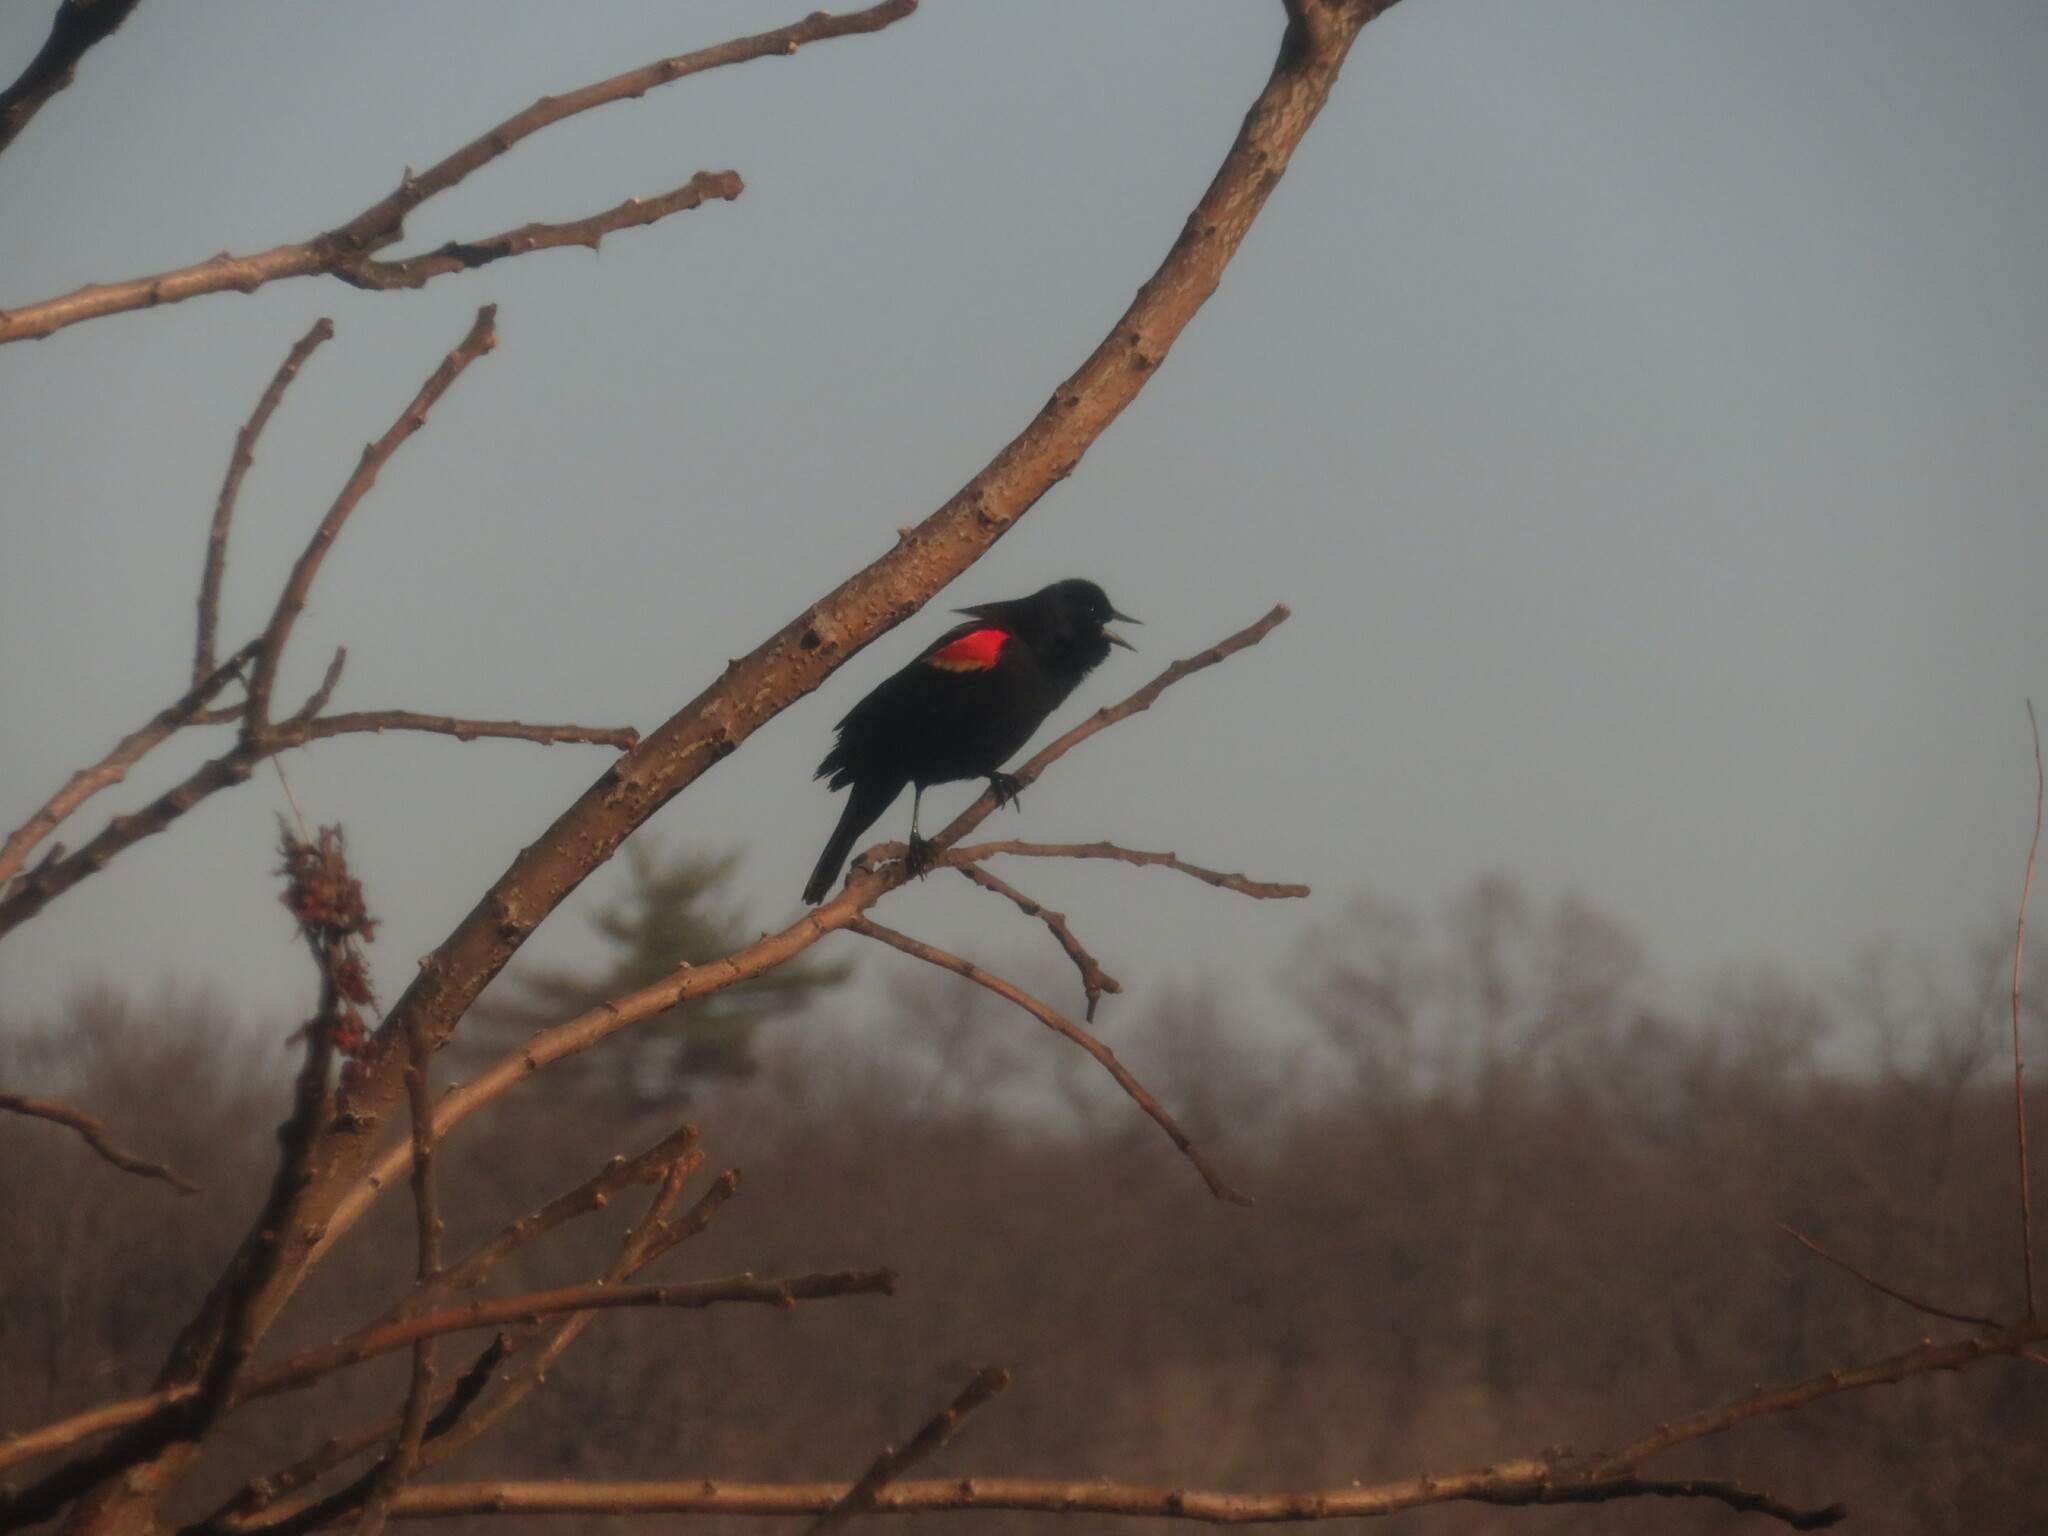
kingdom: Animalia
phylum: Chordata
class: Aves
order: Passeriformes
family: Icteridae
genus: Agelaius
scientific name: Agelaius phoeniceus
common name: Red-winged blackbird
